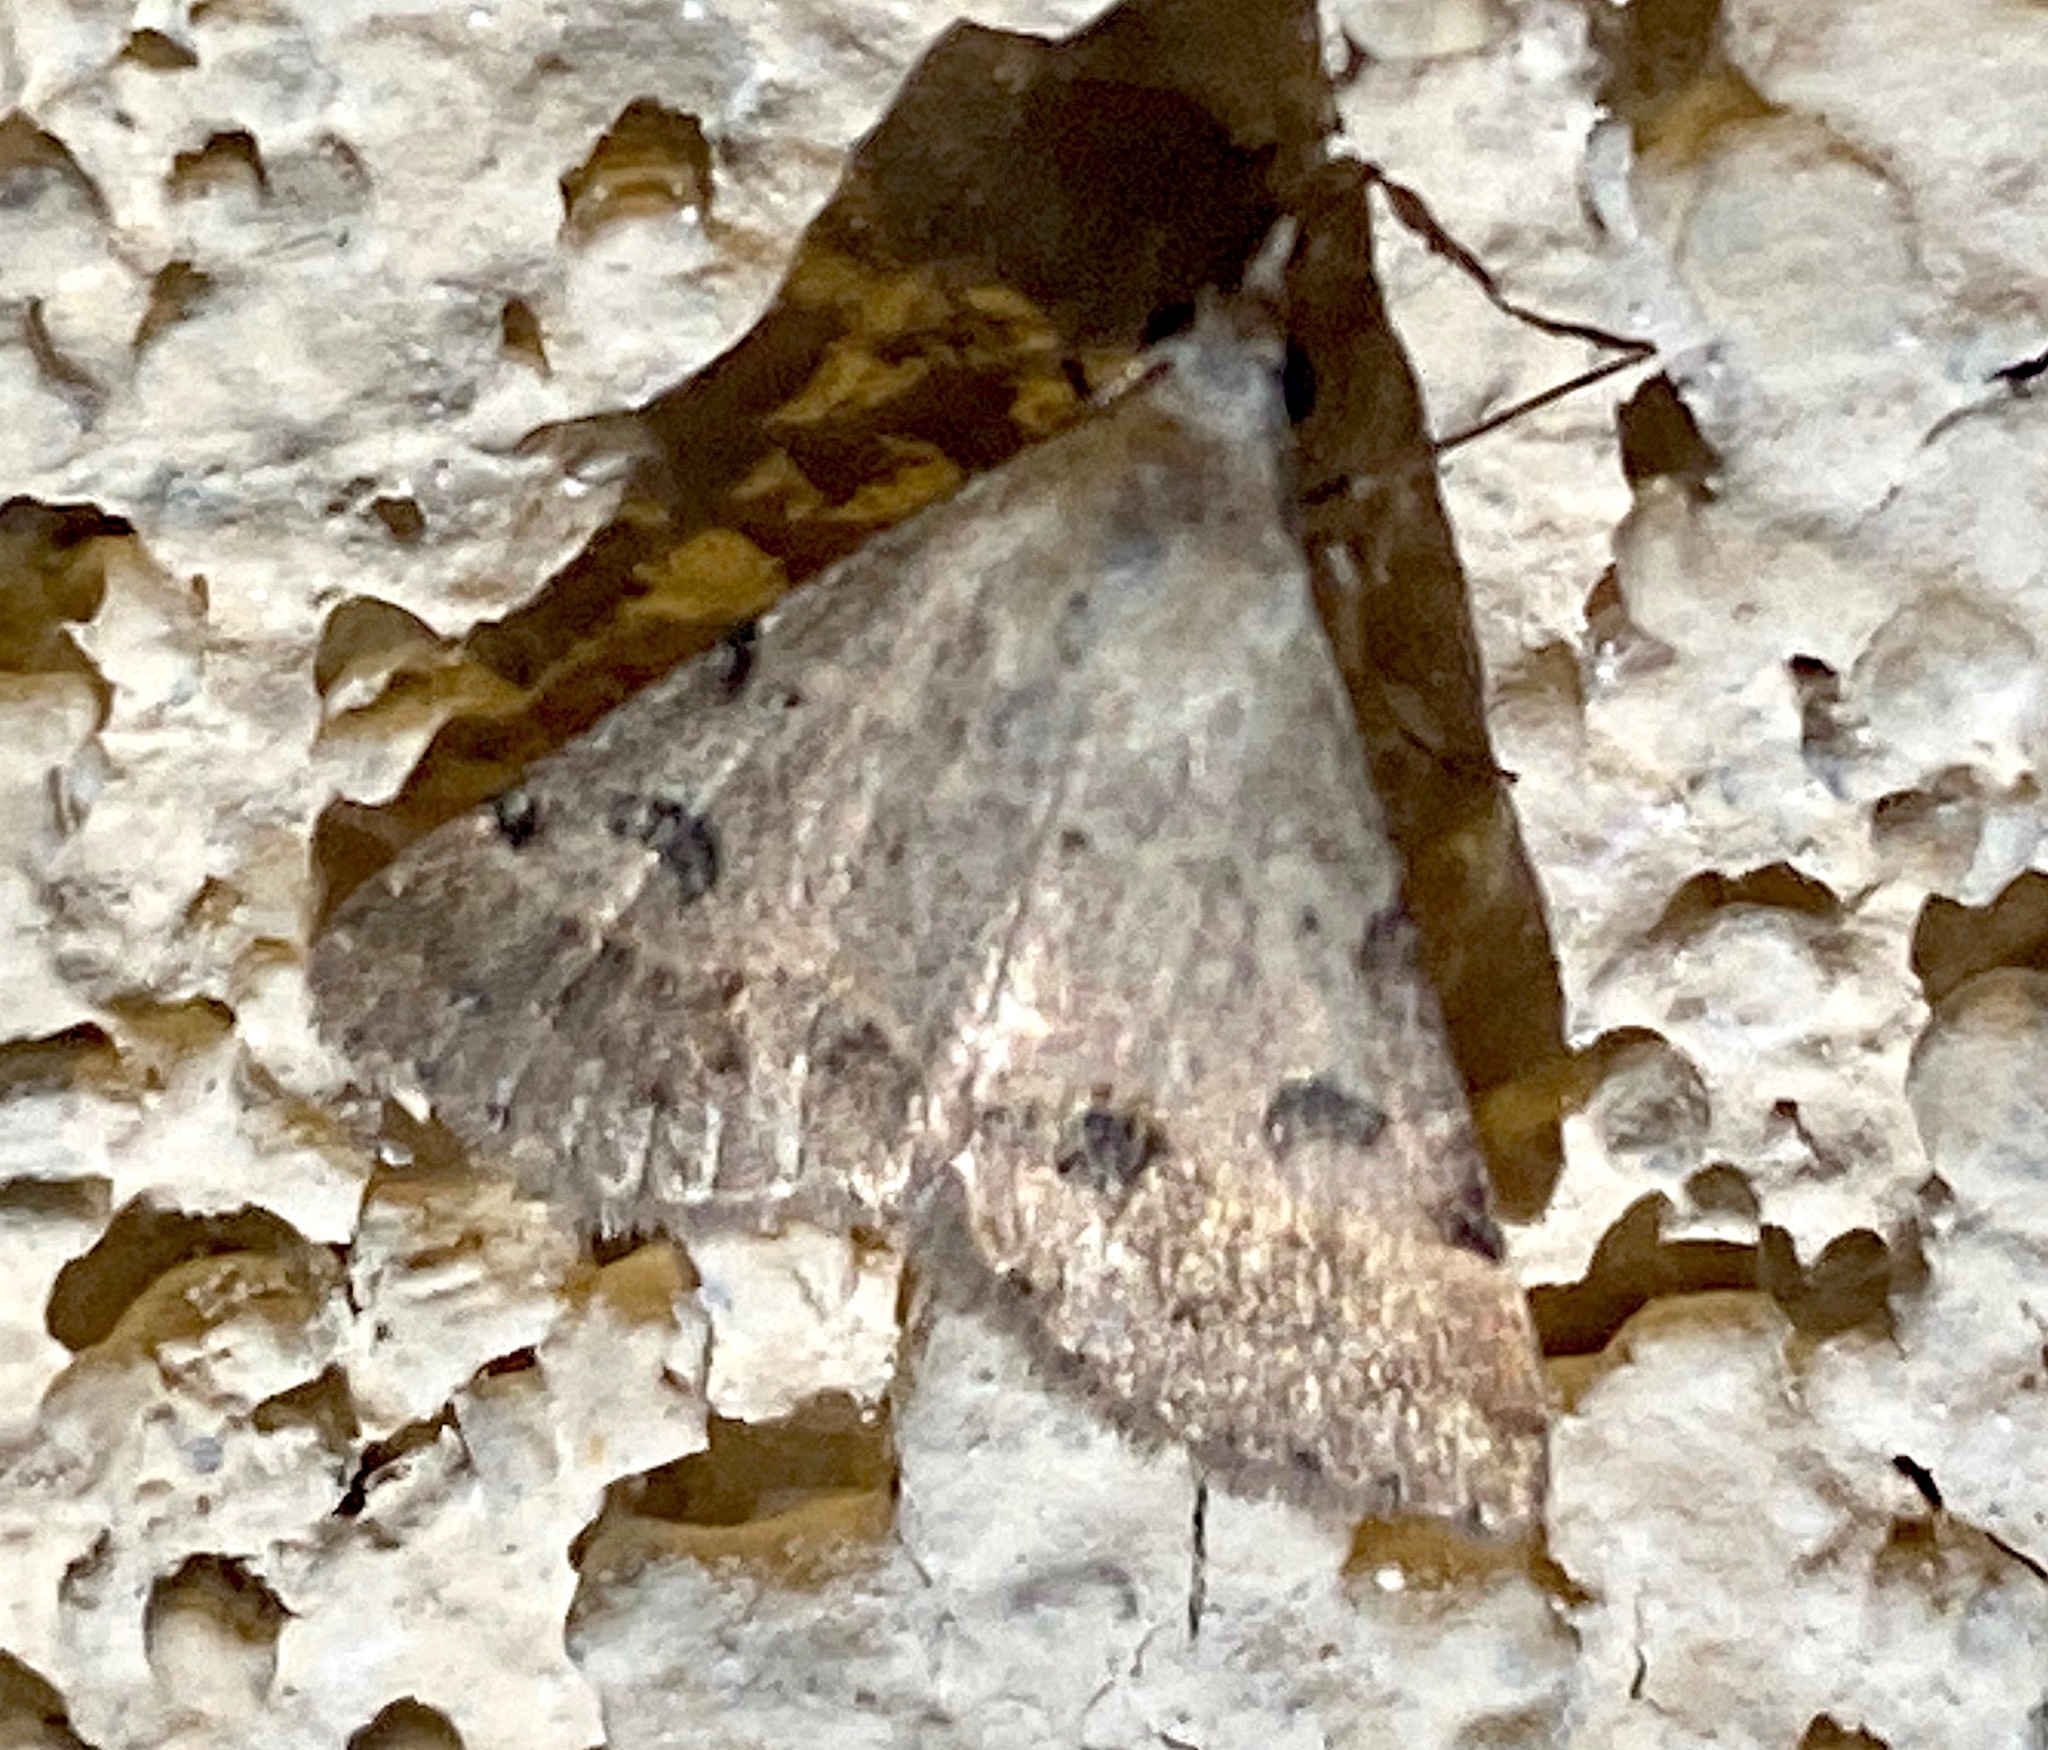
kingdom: Animalia
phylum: Arthropoda
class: Insecta
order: Lepidoptera
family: Erebidae
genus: Hemeroplanis
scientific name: Hemeroplanis historialis
